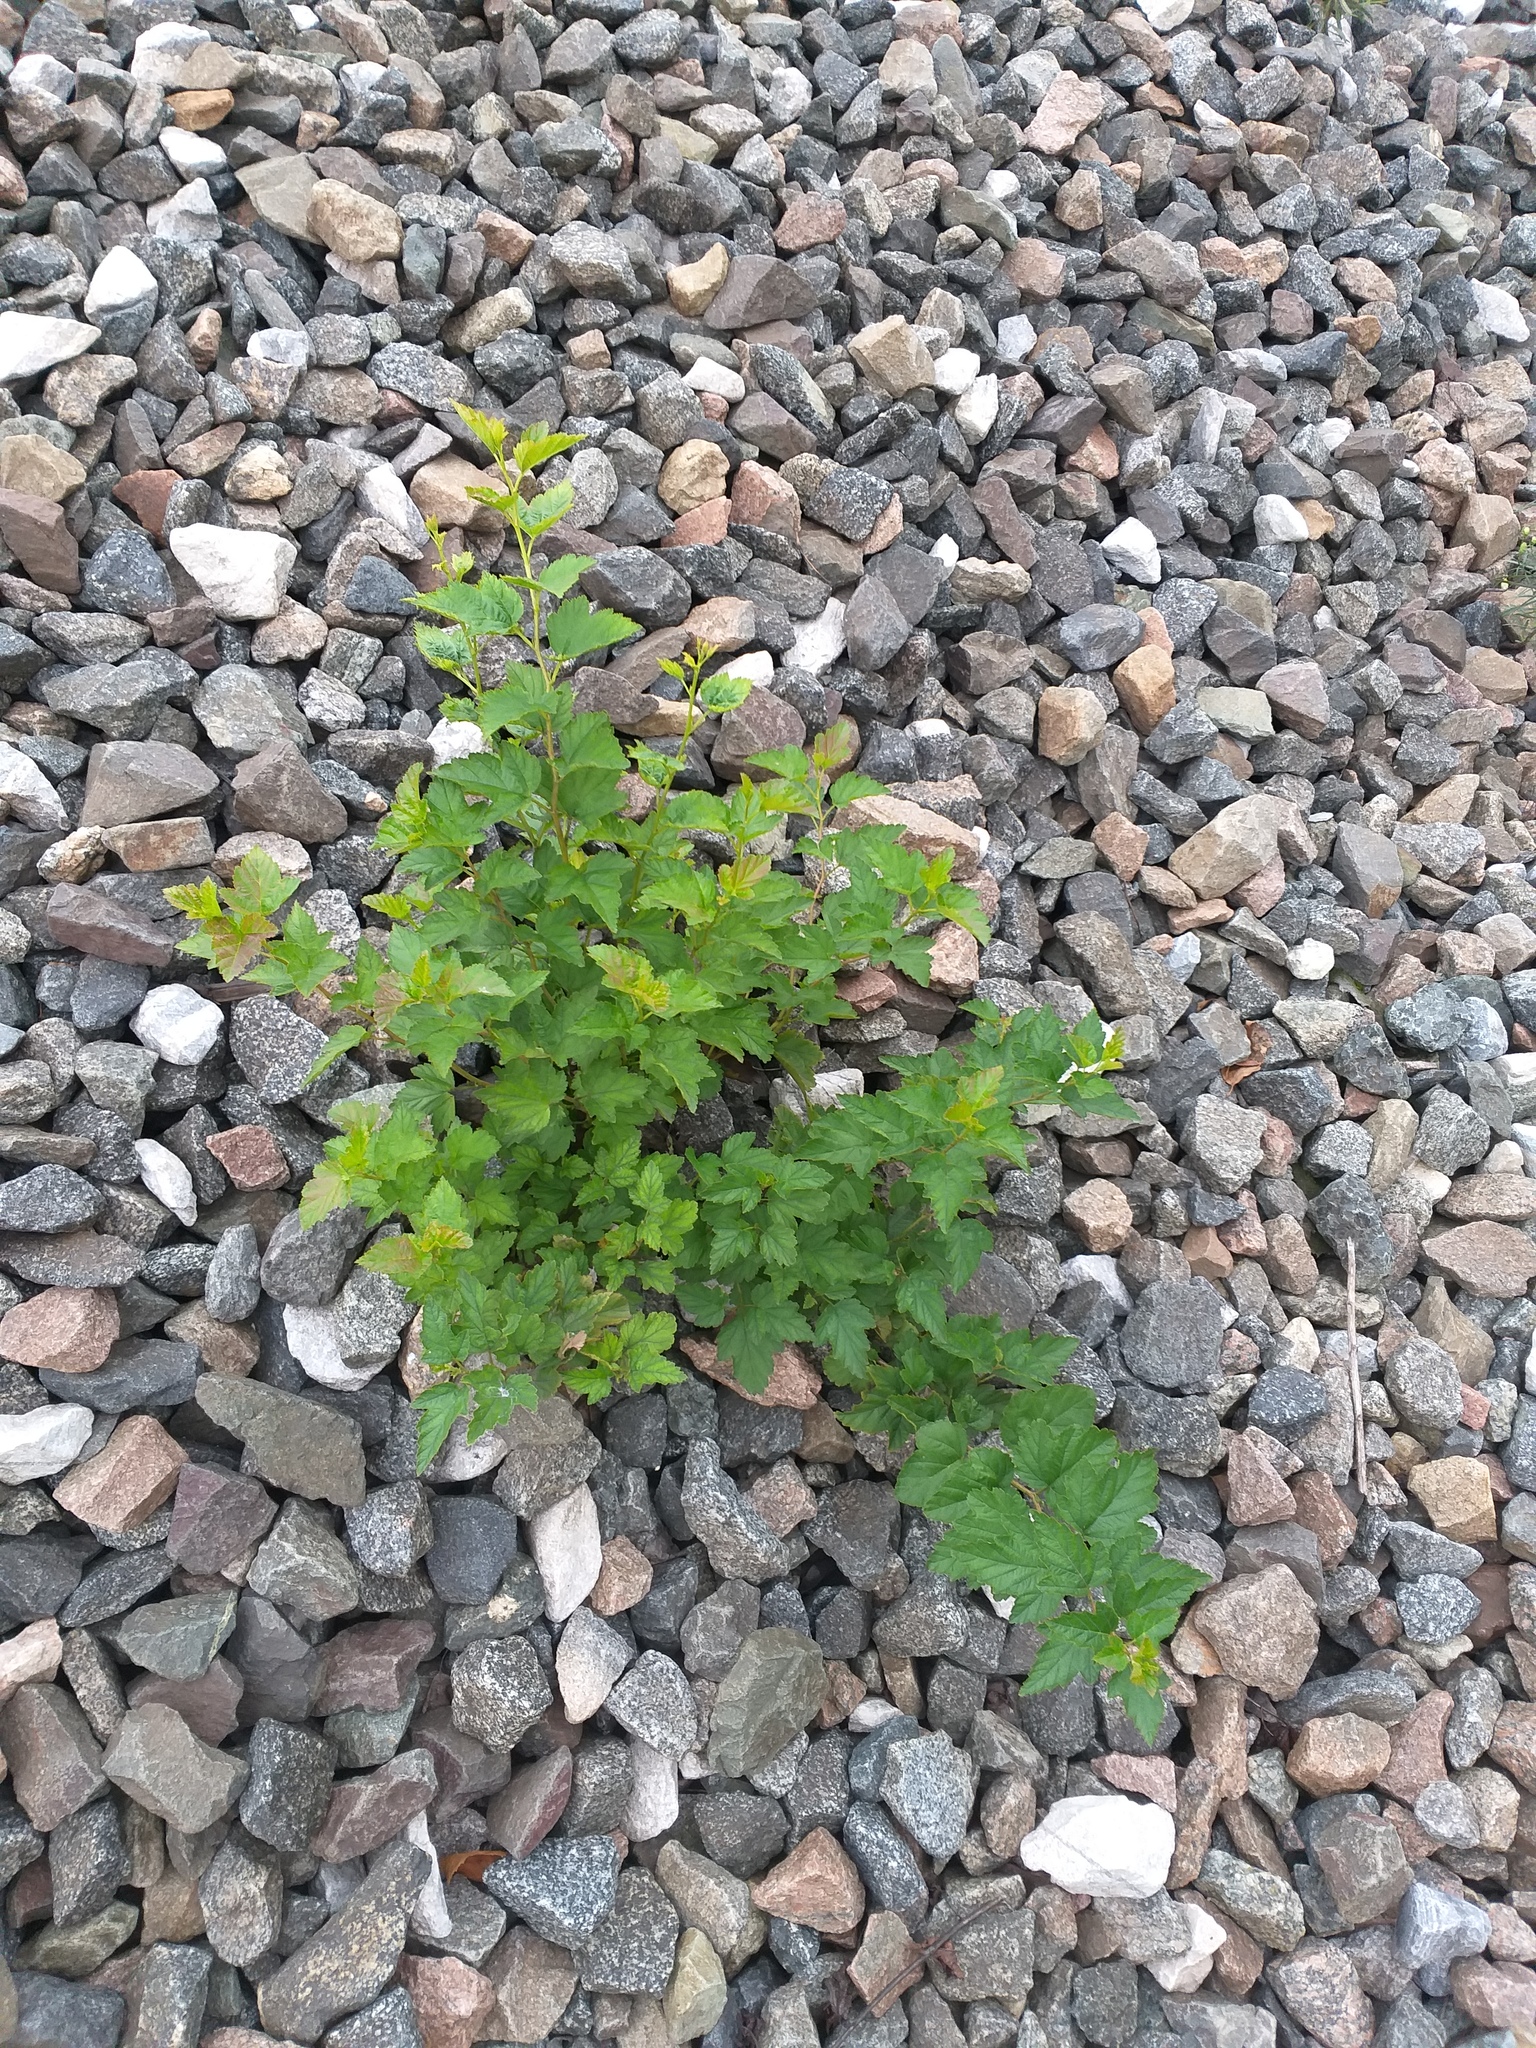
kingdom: Plantae
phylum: Tracheophyta
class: Magnoliopsida
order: Rosales
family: Rosaceae
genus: Physocarpus
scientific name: Physocarpus opulifolius
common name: Ninebark
